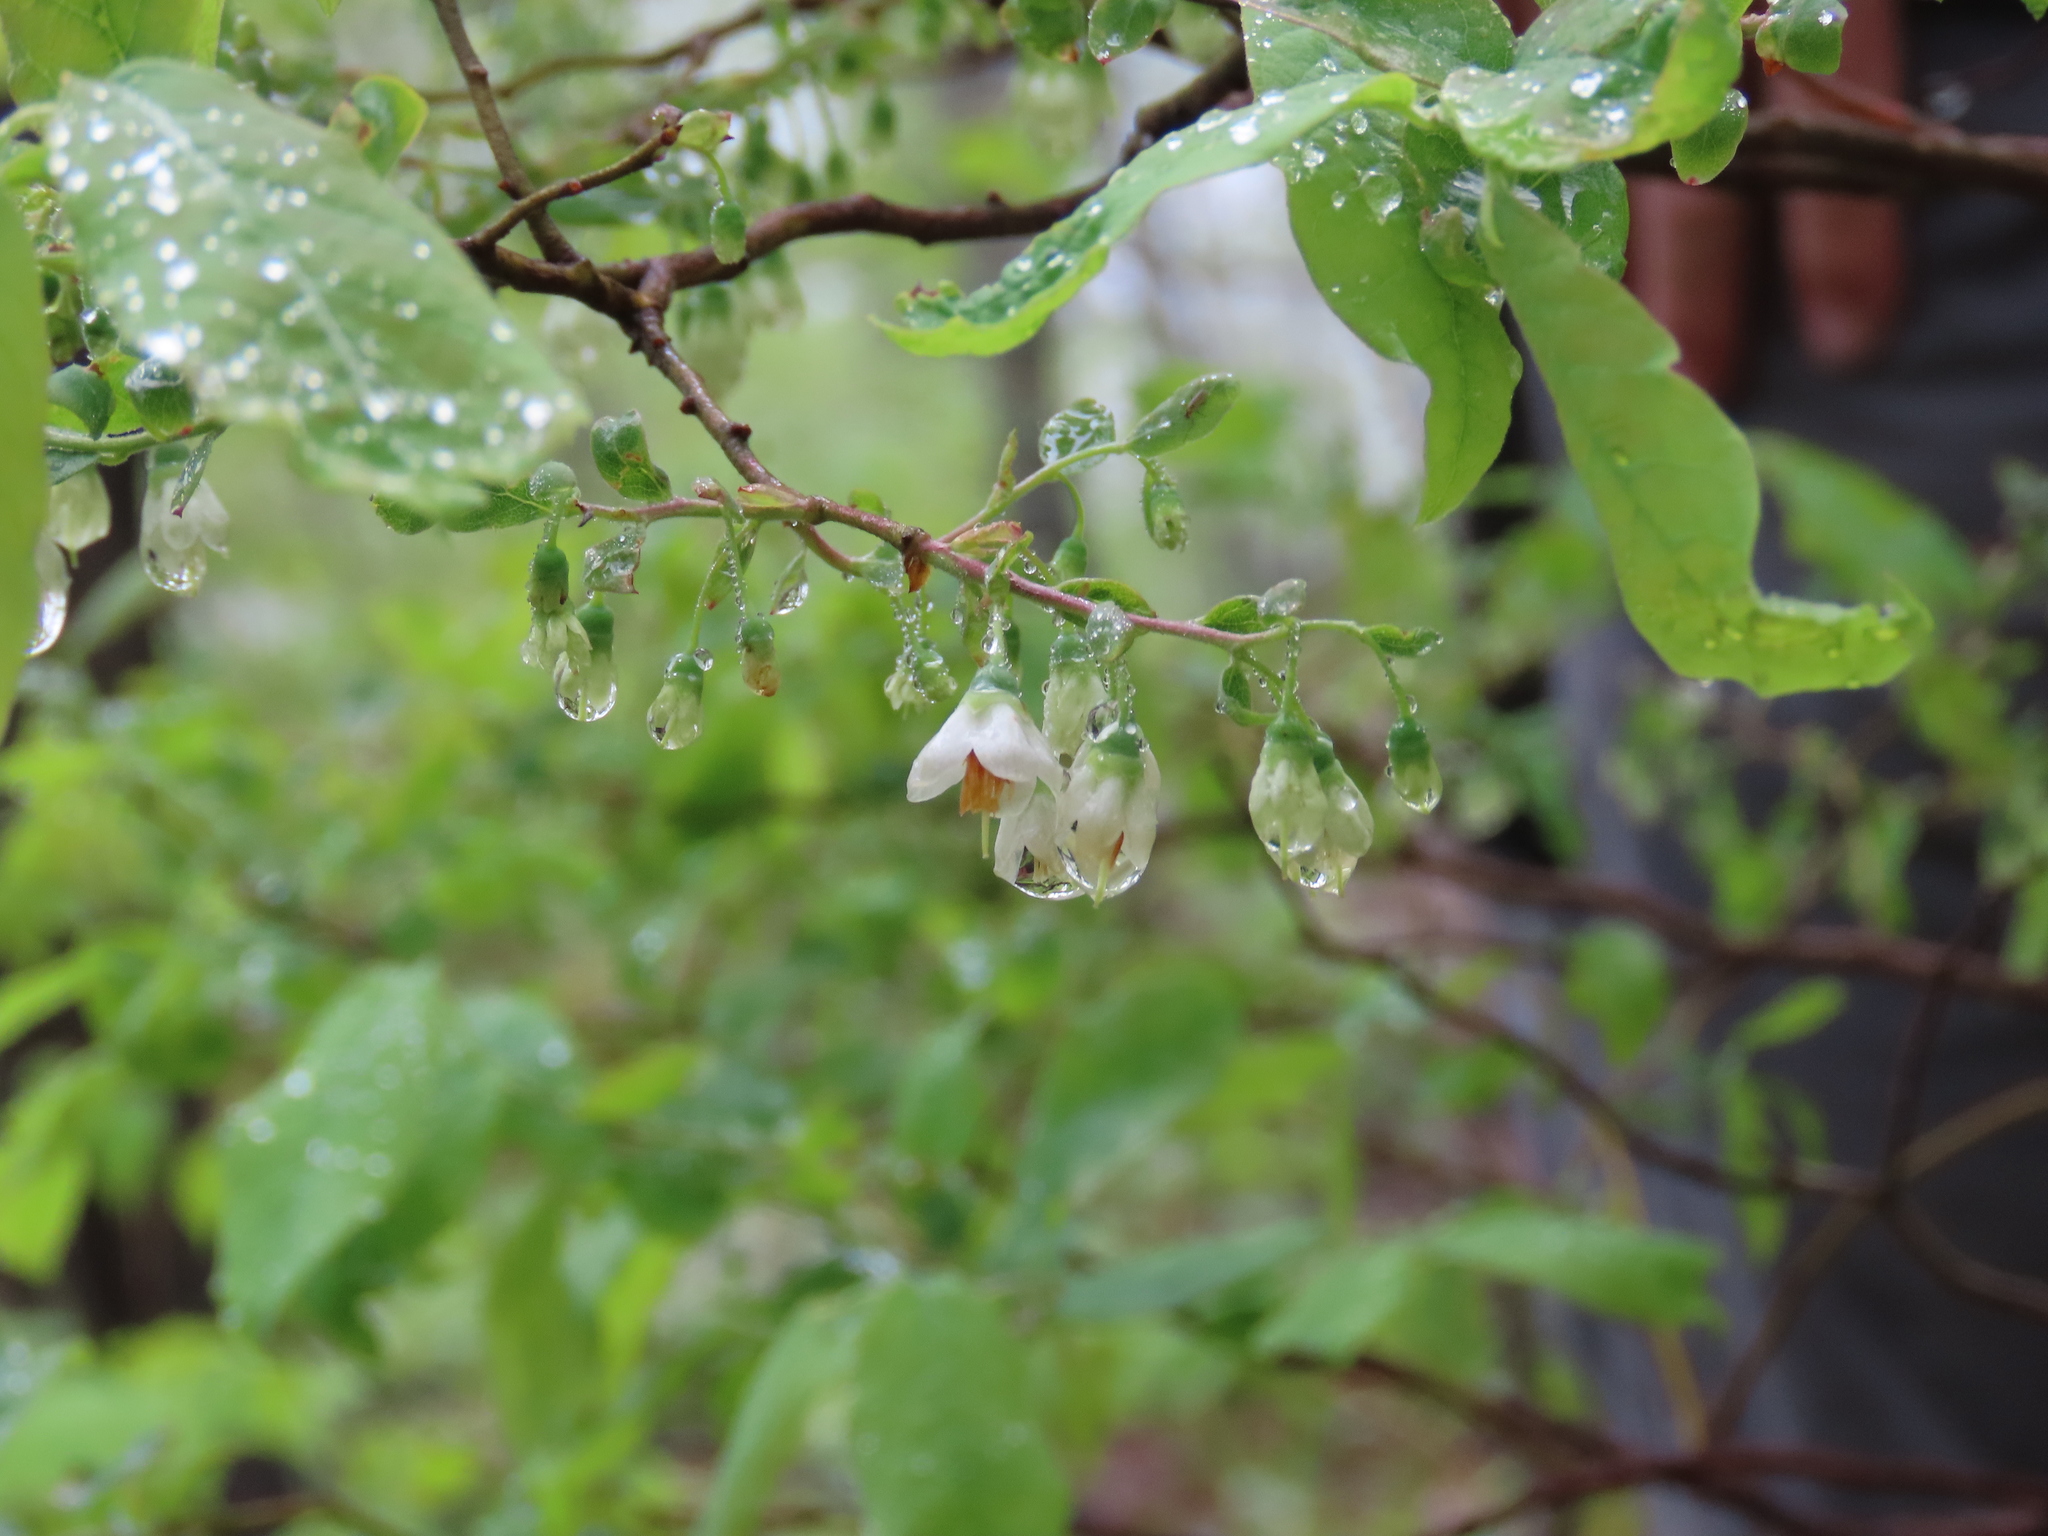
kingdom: Plantae
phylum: Tracheophyta
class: Magnoliopsida
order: Ericales
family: Ericaceae
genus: Vaccinium
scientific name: Vaccinium stamineum
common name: Deerberry
